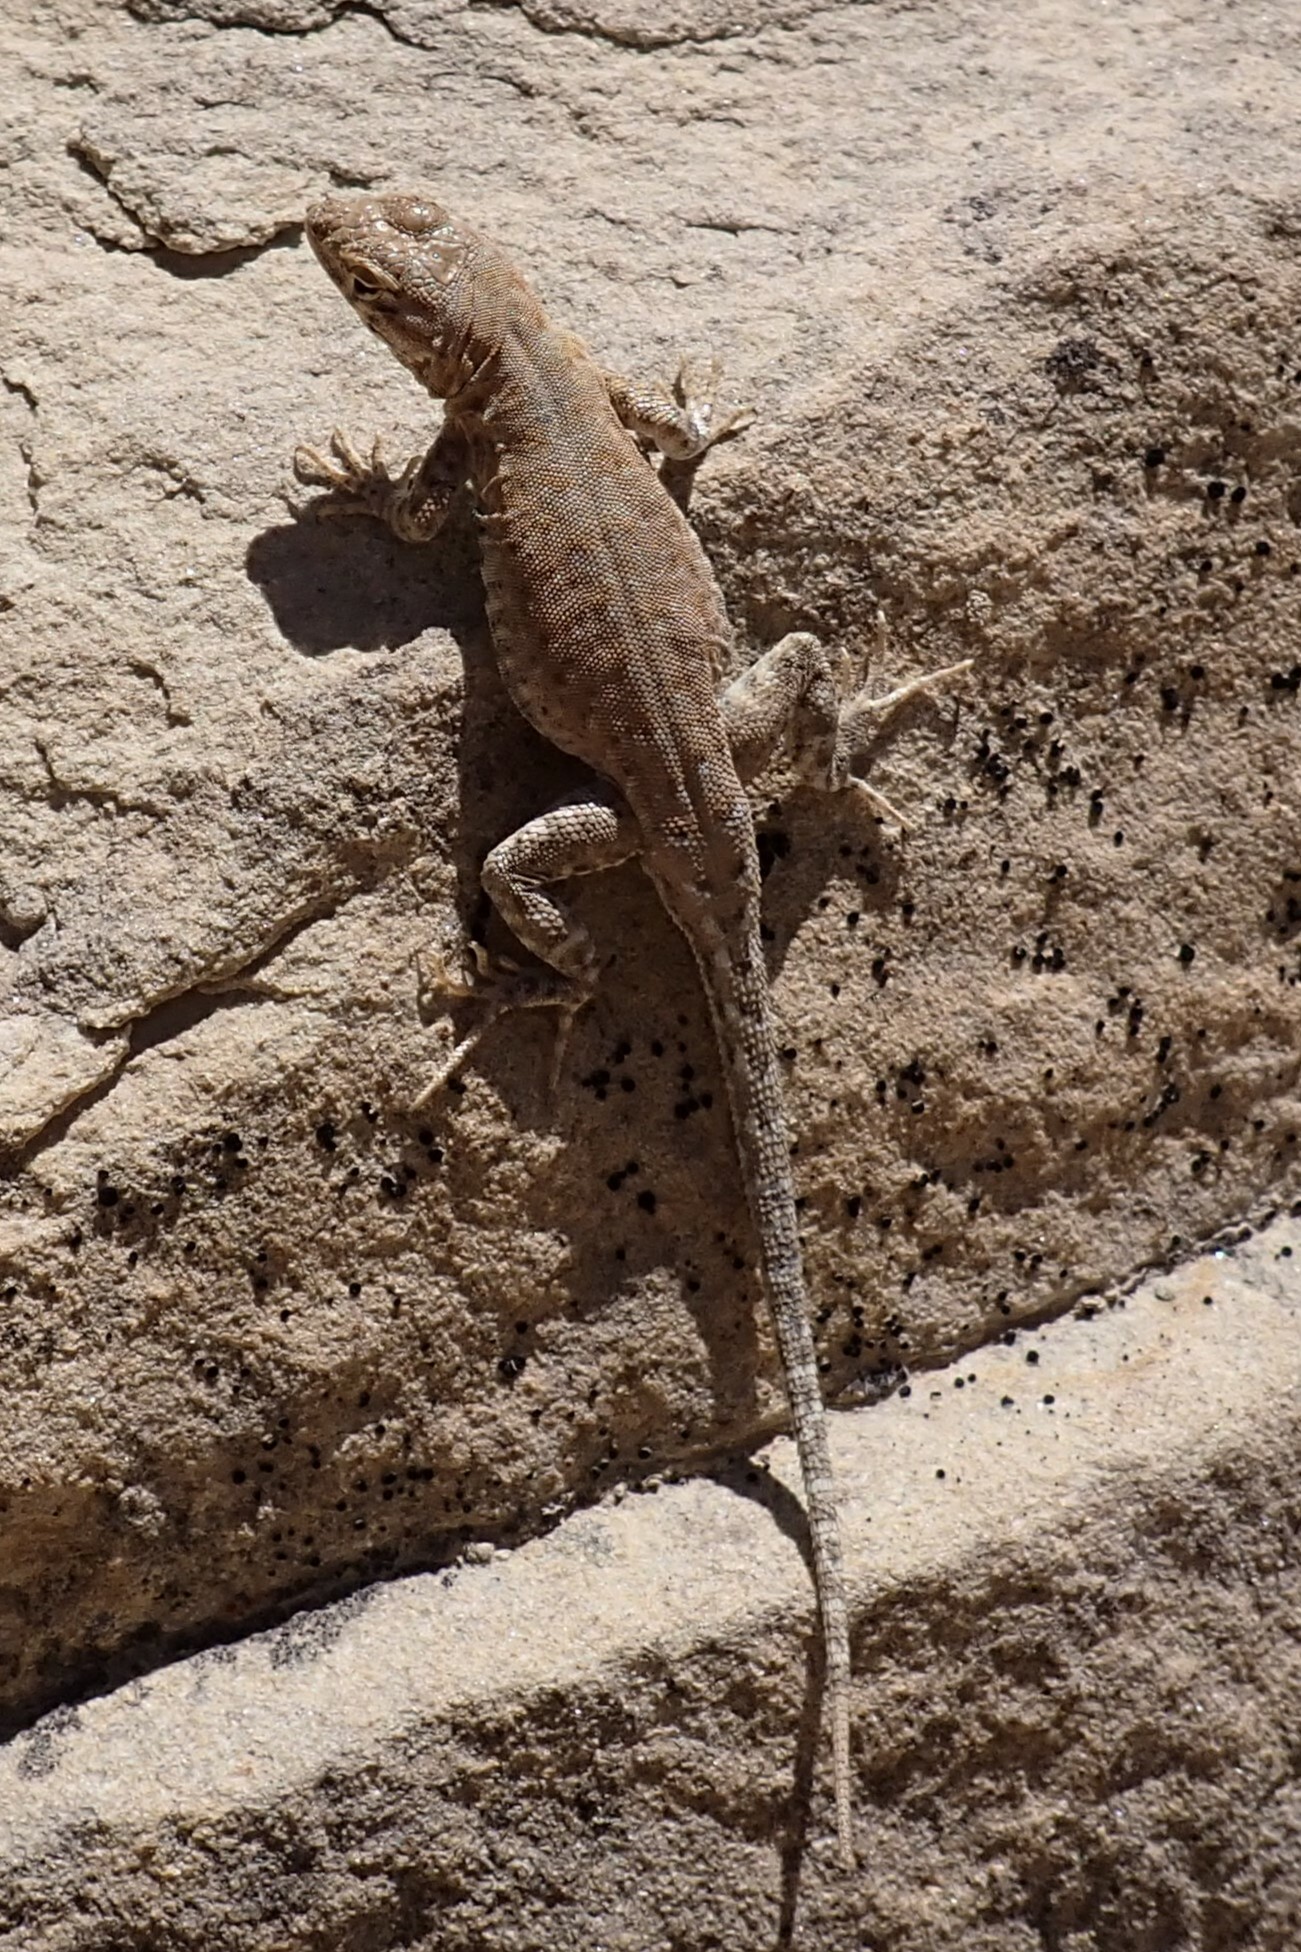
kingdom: Animalia
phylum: Chordata
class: Squamata
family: Phrynosomatidae
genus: Uta
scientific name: Uta stansburiana
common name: Side-blotched lizard
